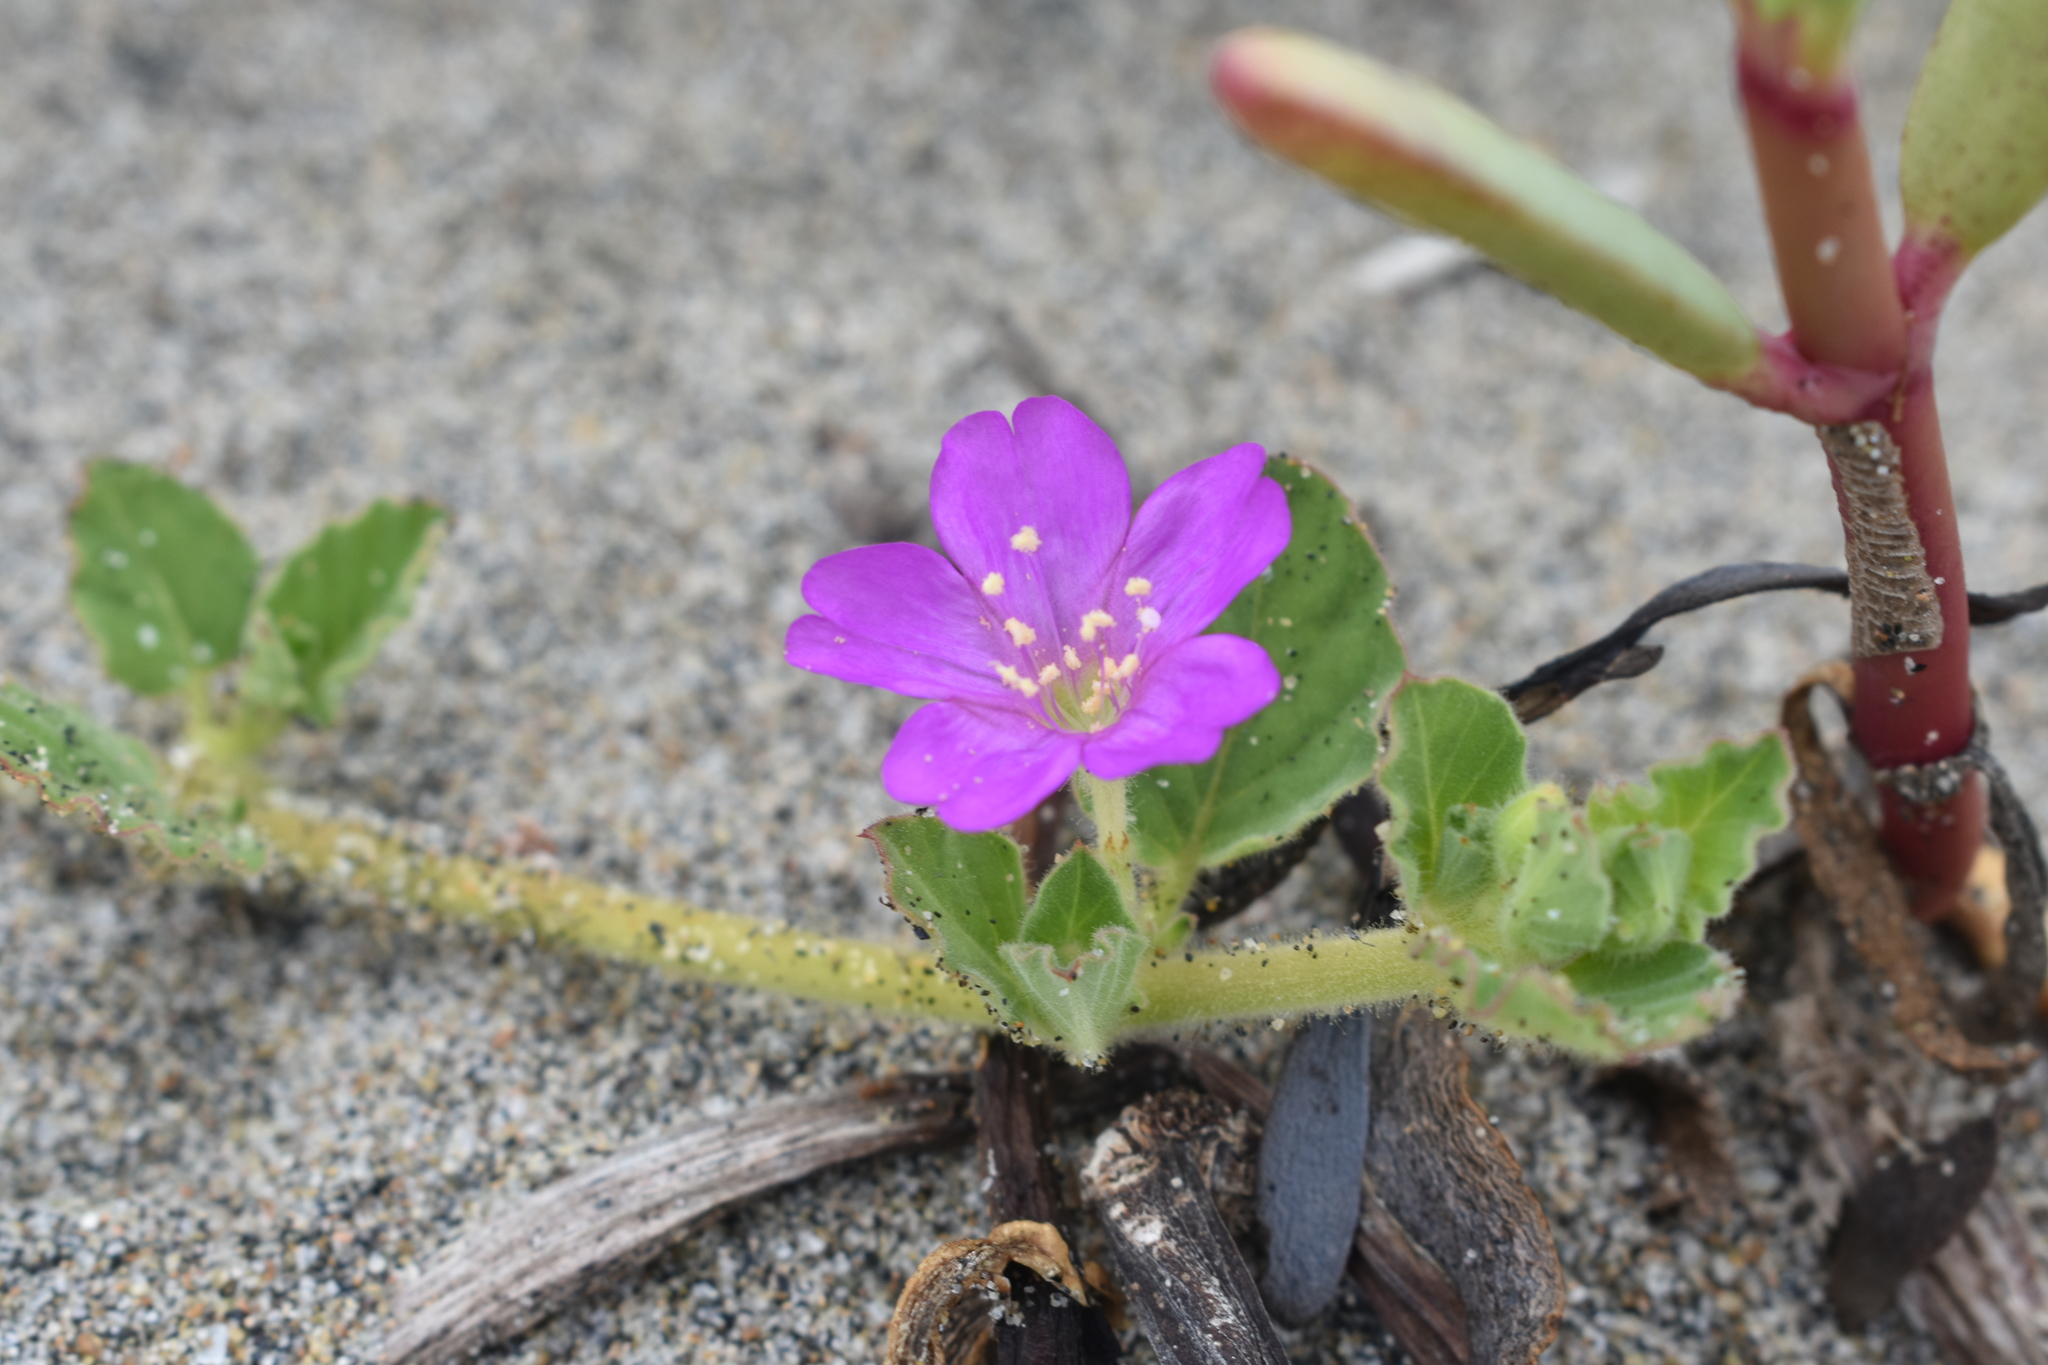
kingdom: Plantae
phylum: Tracheophyta
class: Magnoliopsida
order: Caryophyllales
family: Nyctaginaceae
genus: Okenia
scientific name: Okenia hypogaea
